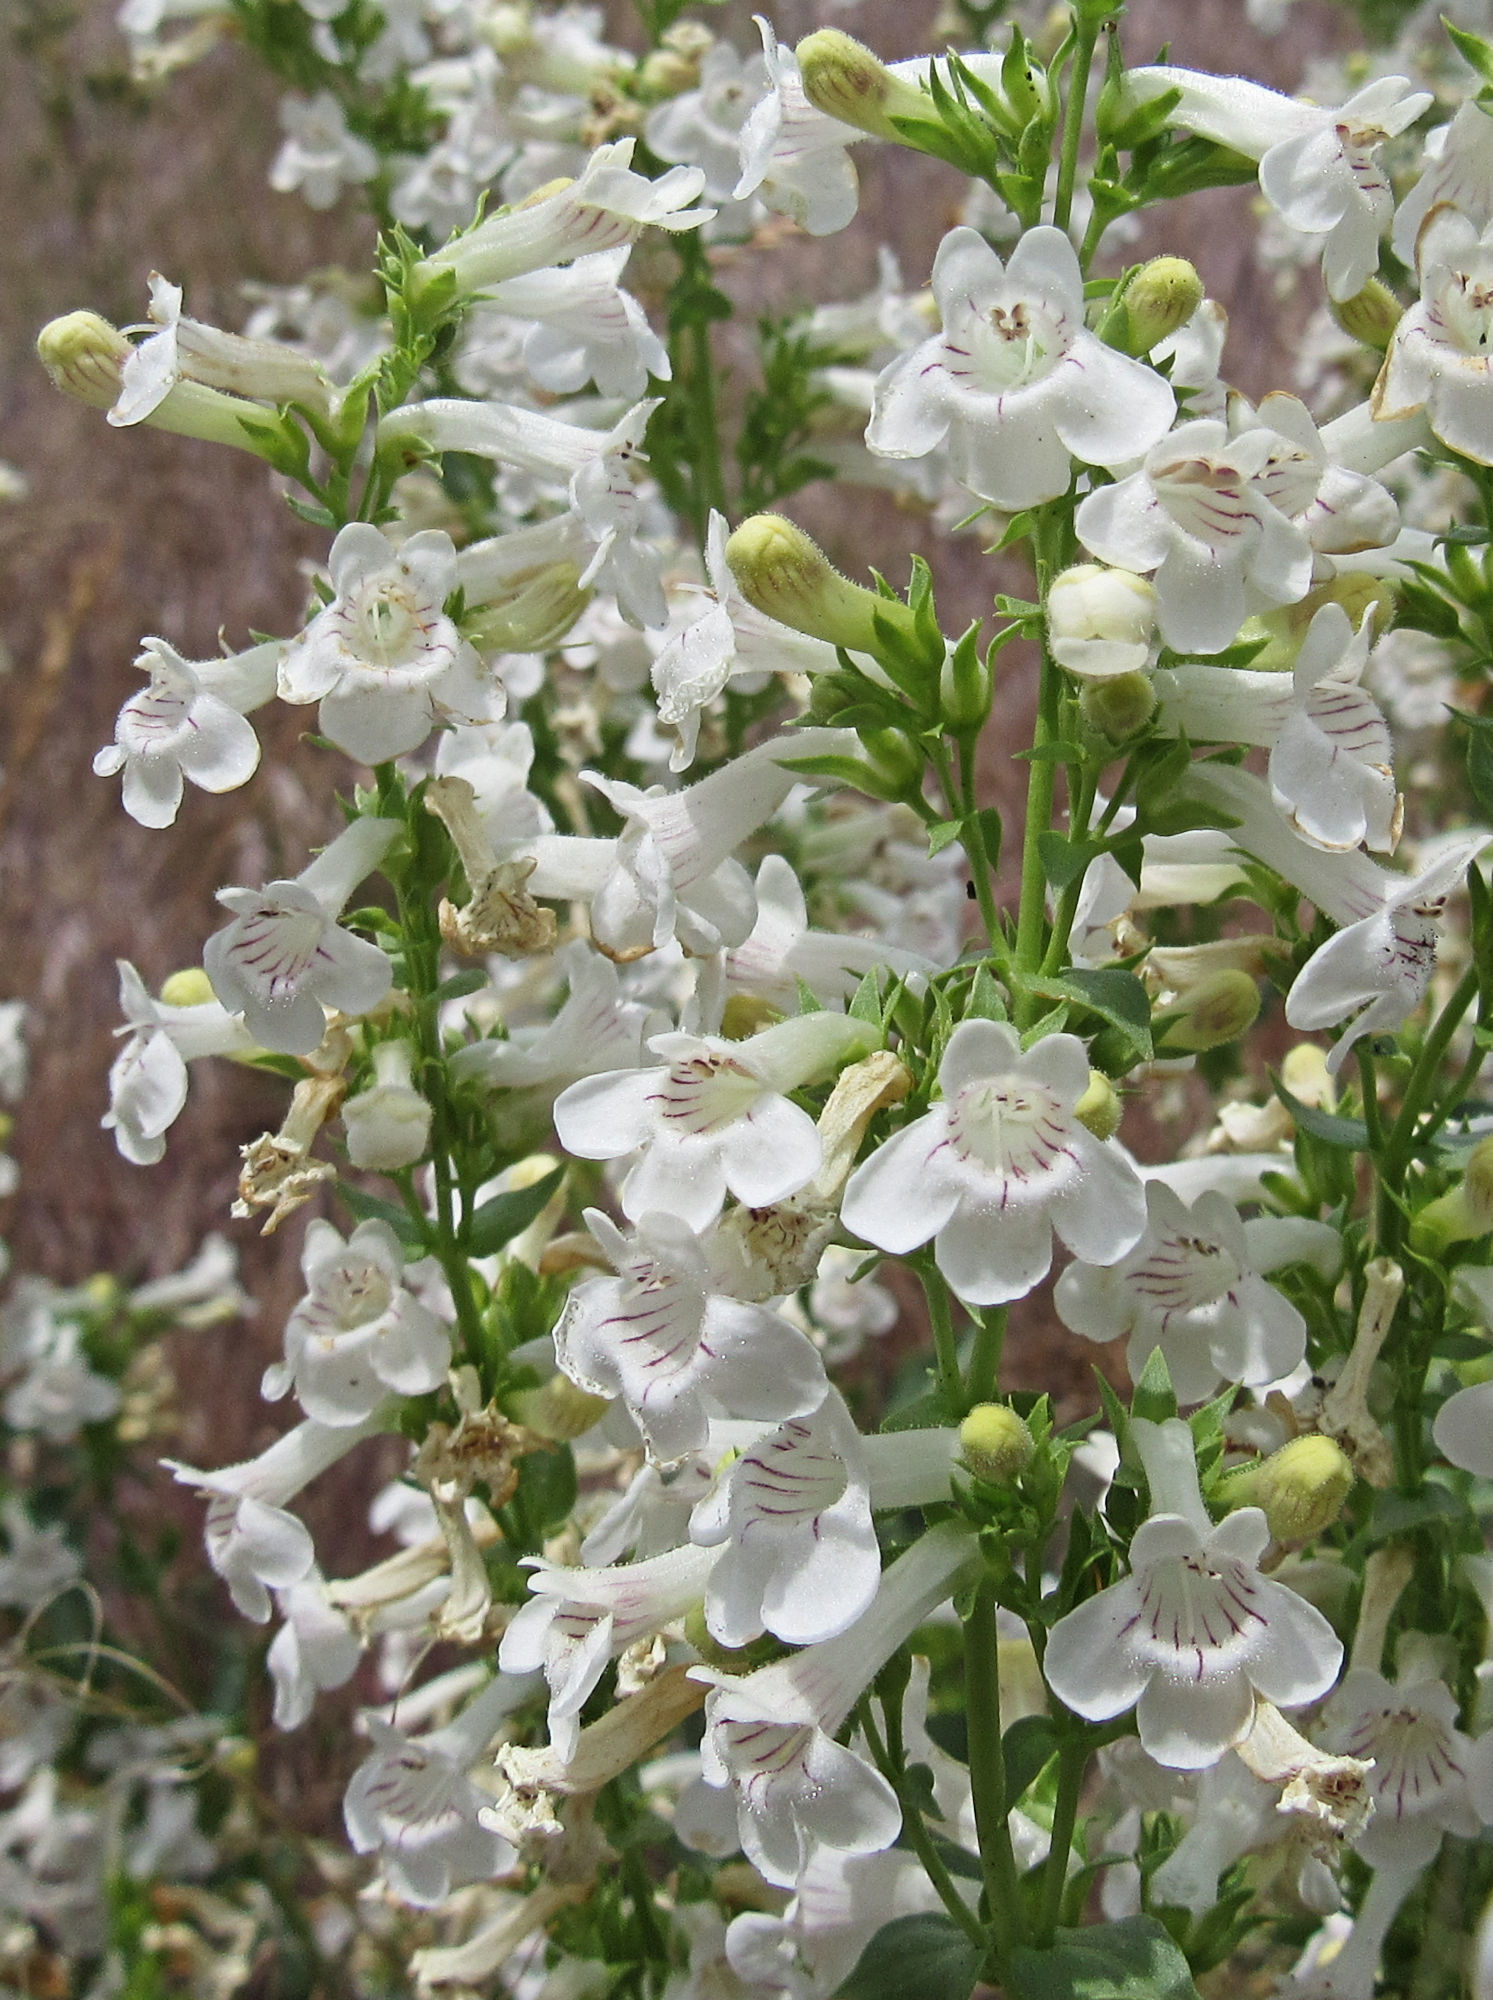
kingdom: Plantae
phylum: Tracheophyta
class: Magnoliopsida
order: Lamiales
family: Plantaginaceae
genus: Penstemon
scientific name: Penstemon deustus
